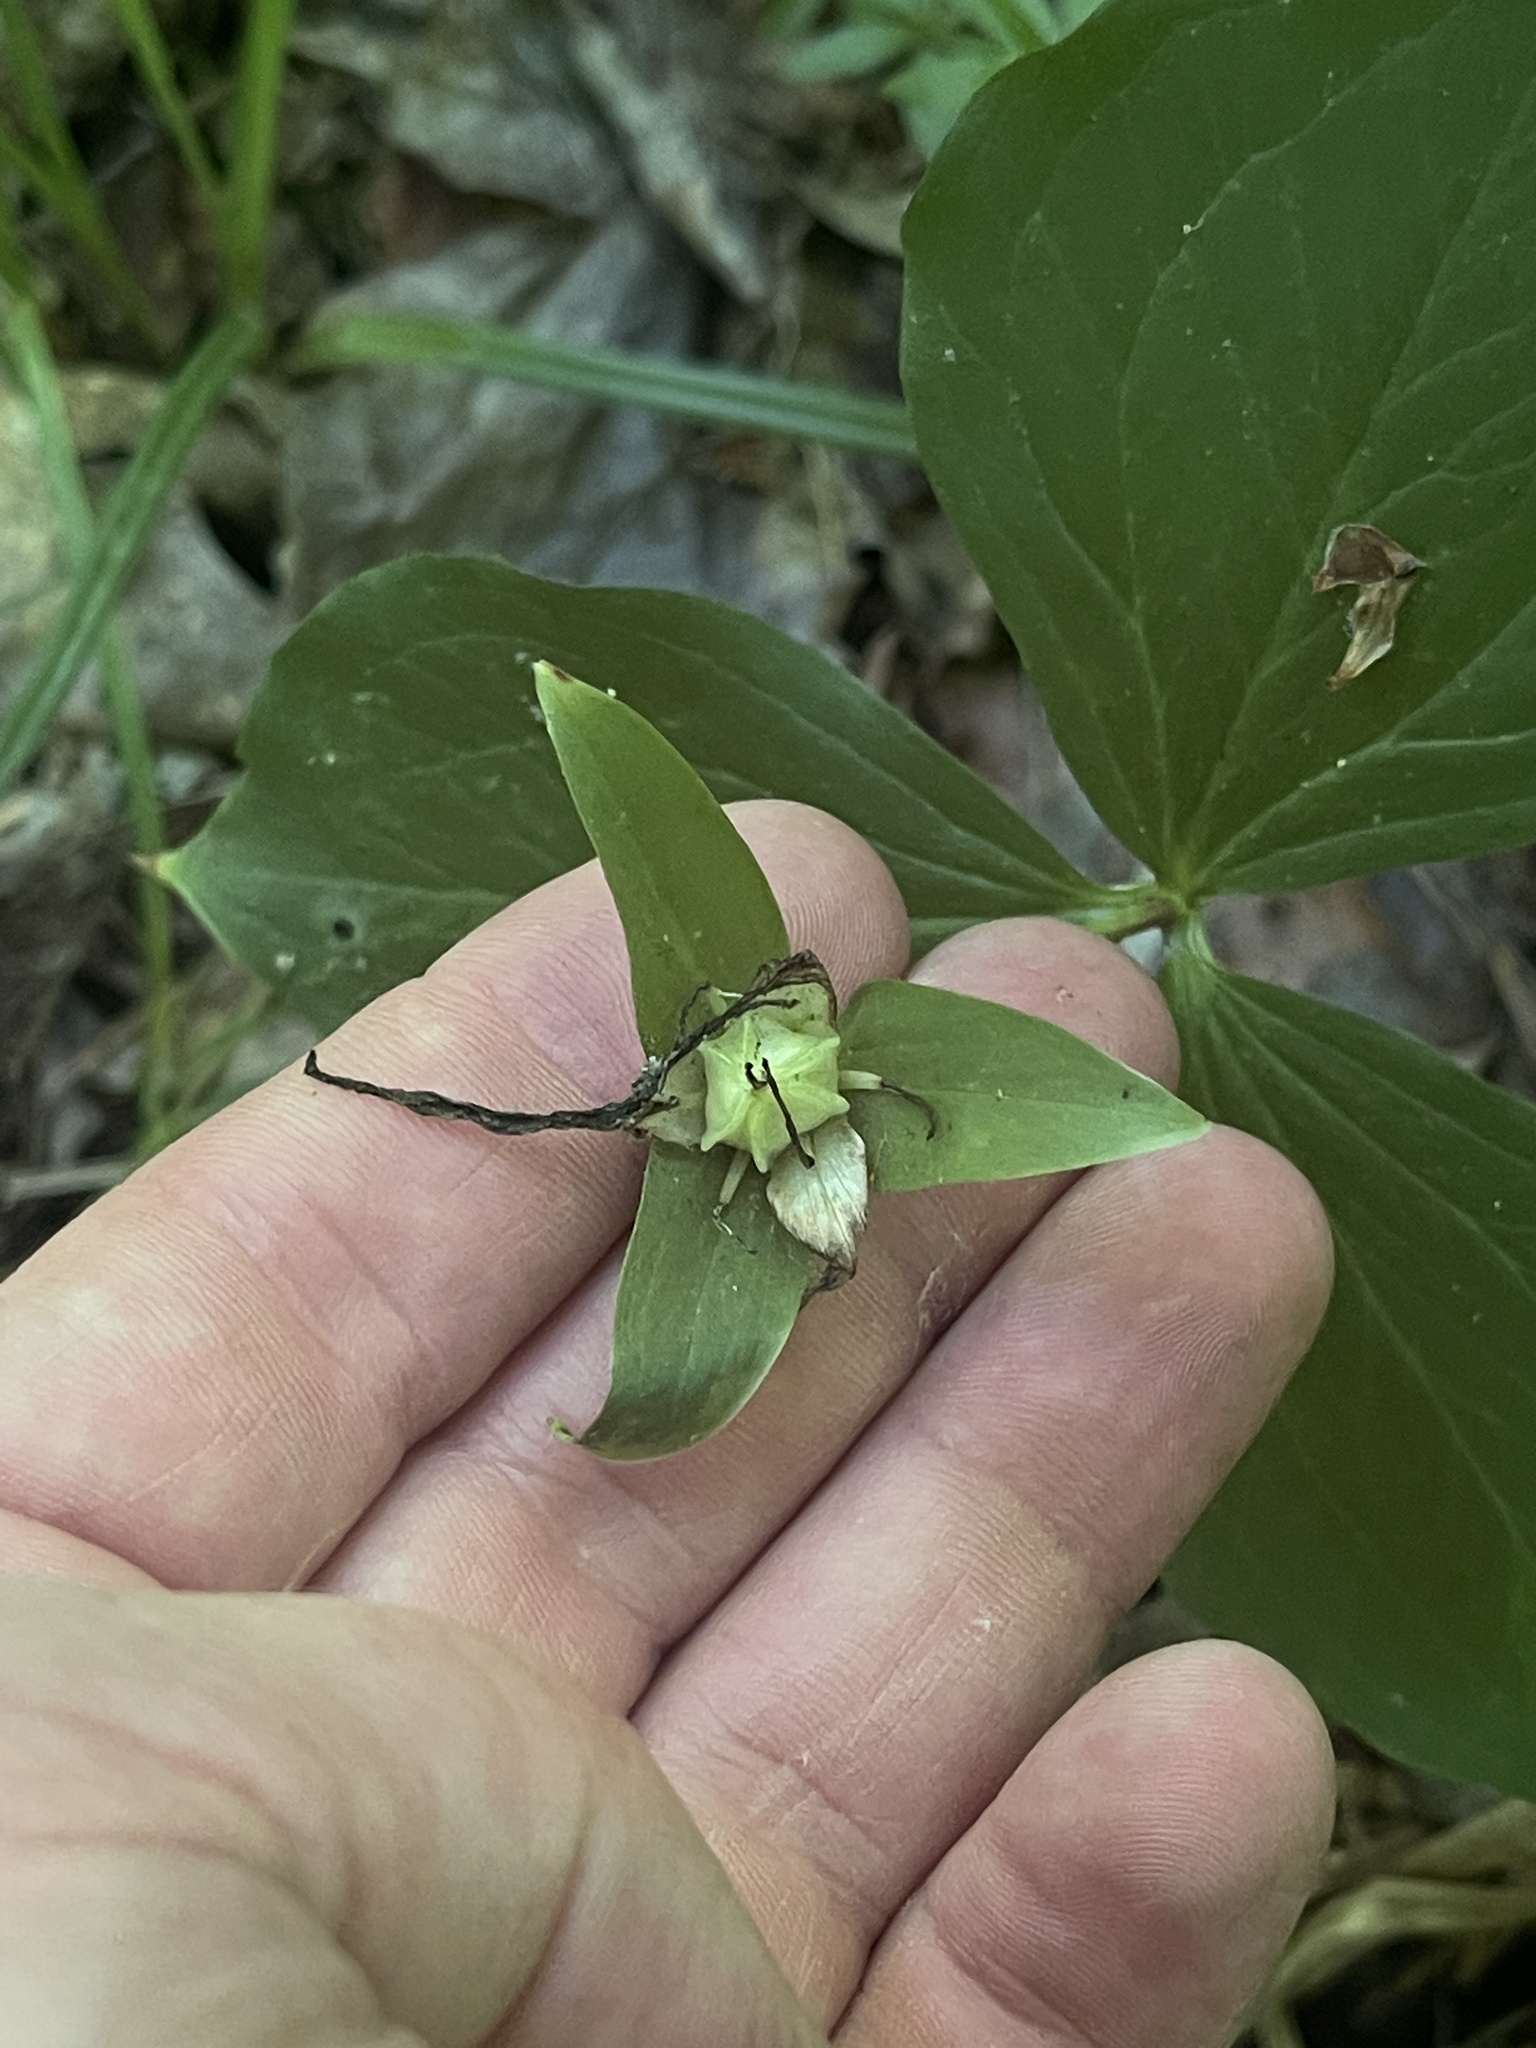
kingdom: Plantae
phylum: Tracheophyta
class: Liliopsida
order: Liliales
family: Melanthiaceae
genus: Trillium
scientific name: Trillium grandiflorum
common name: Great white trillium
